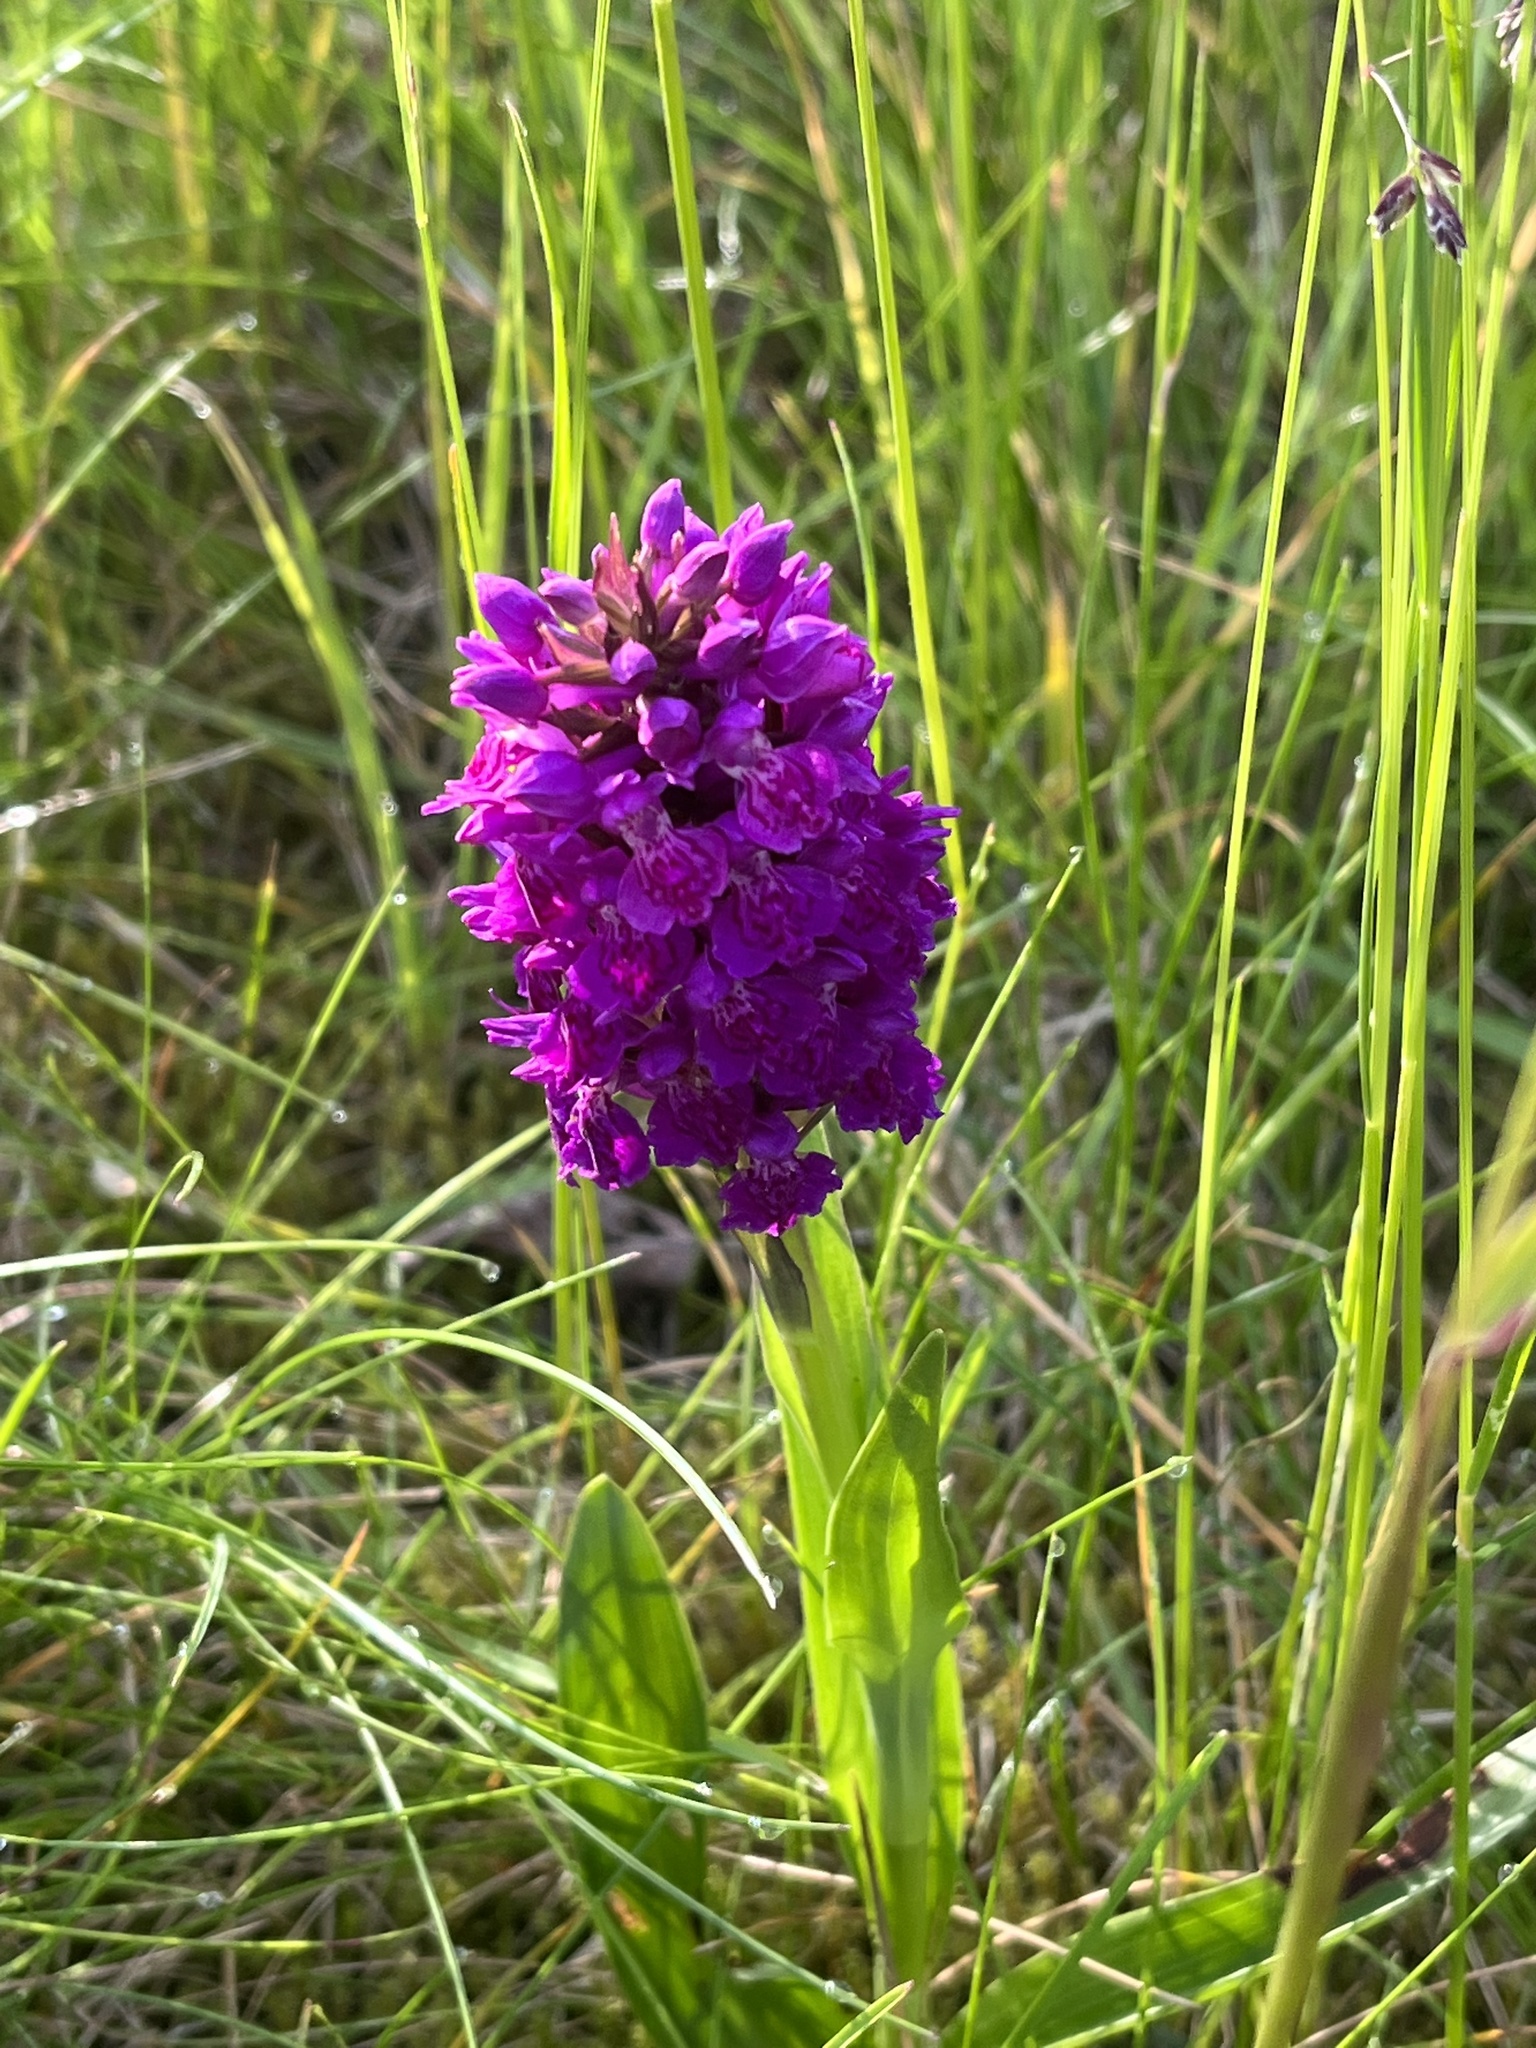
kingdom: Plantae
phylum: Tracheophyta
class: Liliopsida
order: Asparagales
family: Orchidaceae
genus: Dactylorhiza
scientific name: Dactylorhiza majalis
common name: Marsh orchid
